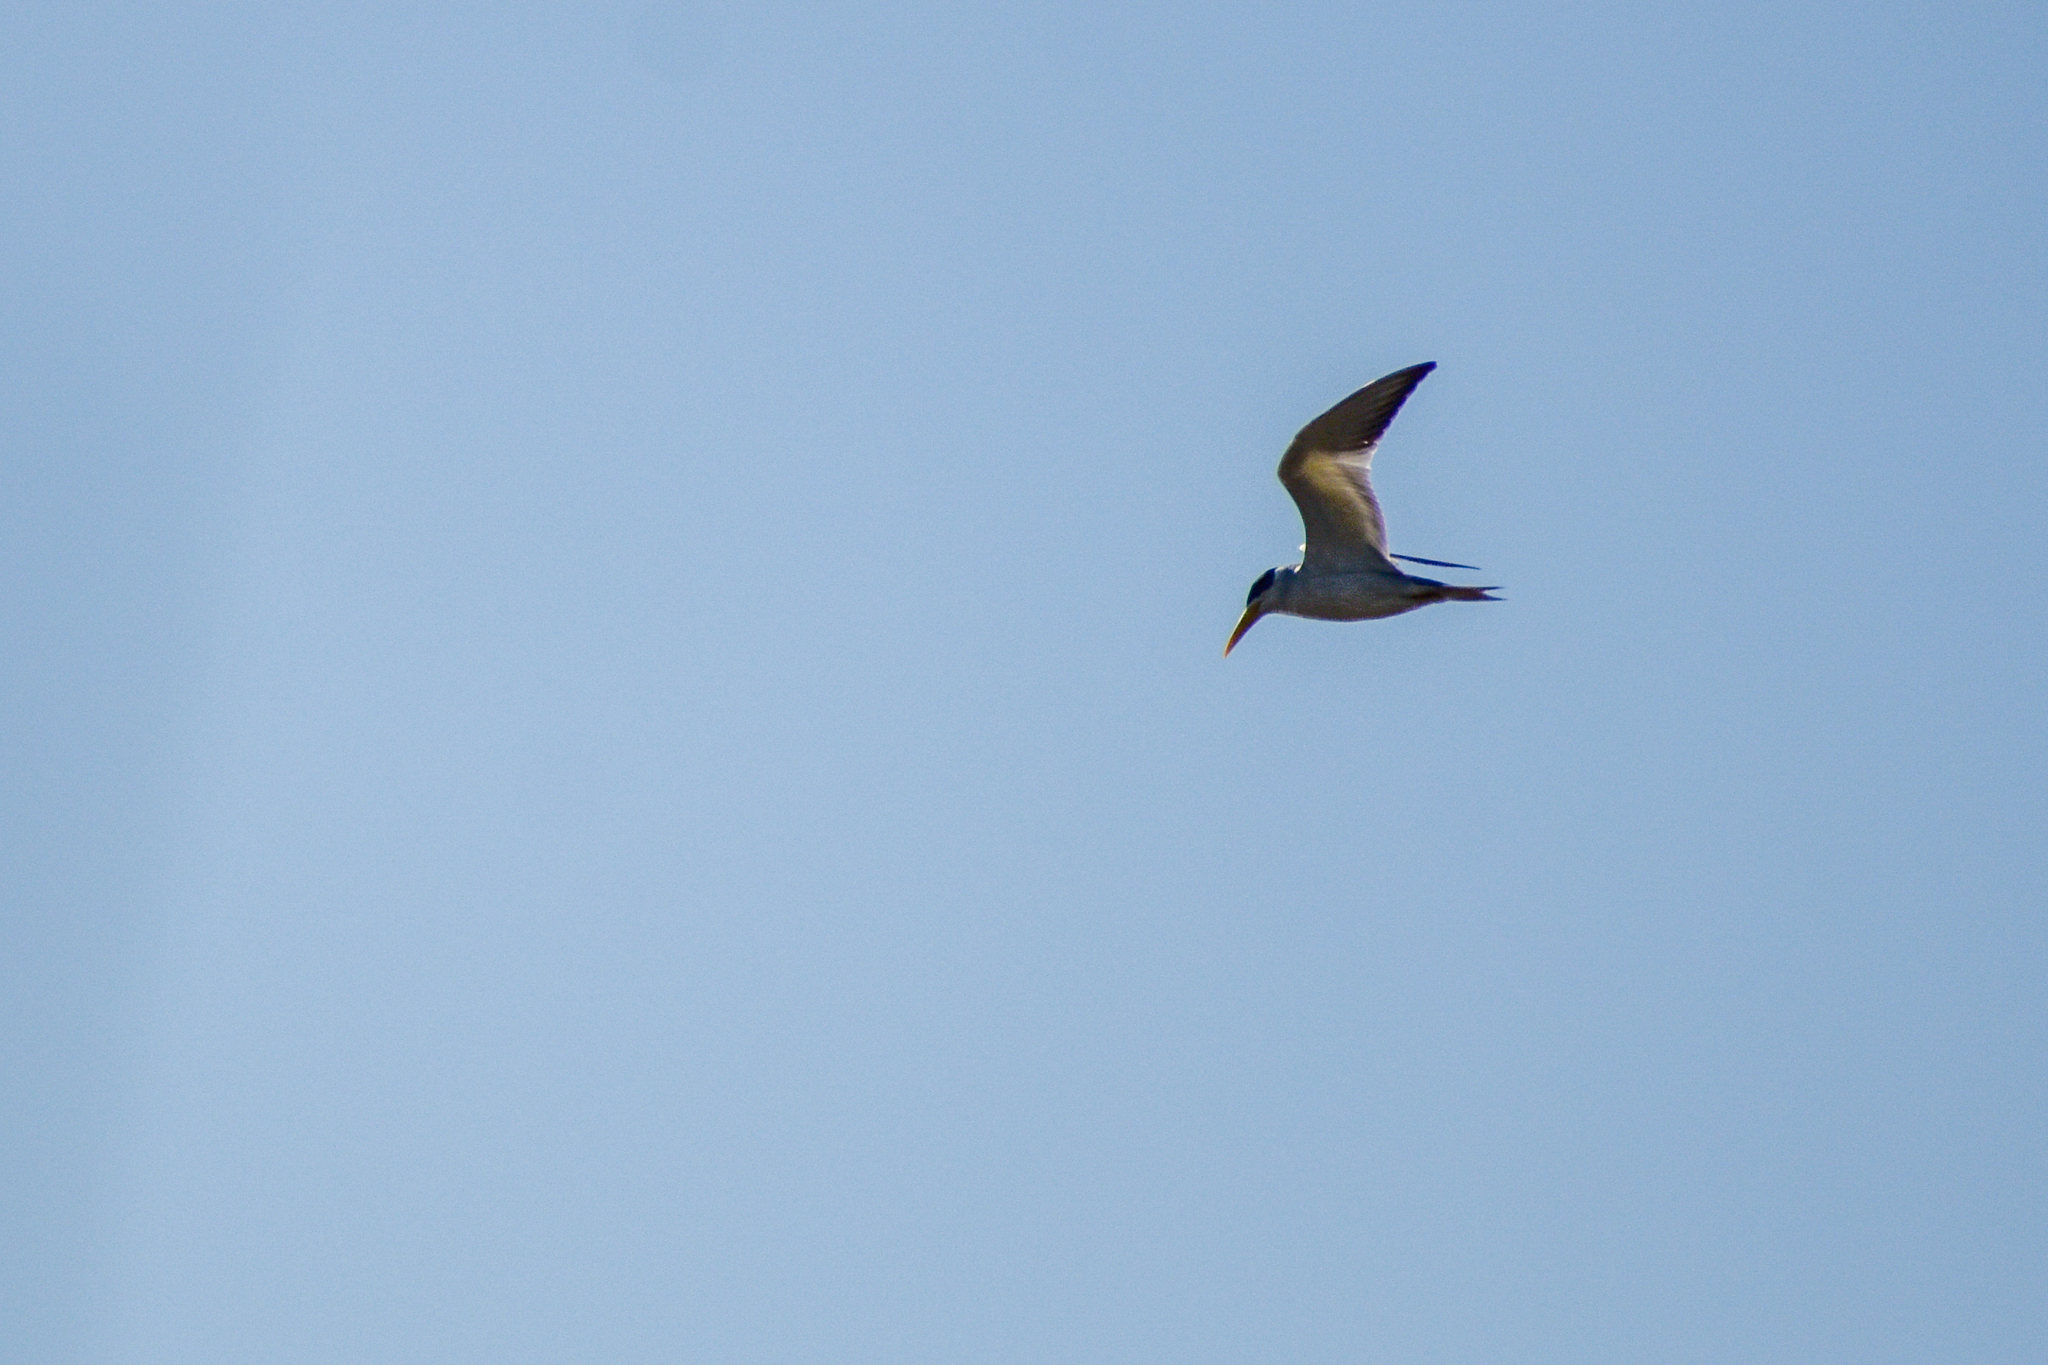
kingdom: Animalia
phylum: Chordata
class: Aves
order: Charadriiformes
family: Laridae
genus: Phaetusa
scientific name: Phaetusa simplex
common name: Large-billed tern
